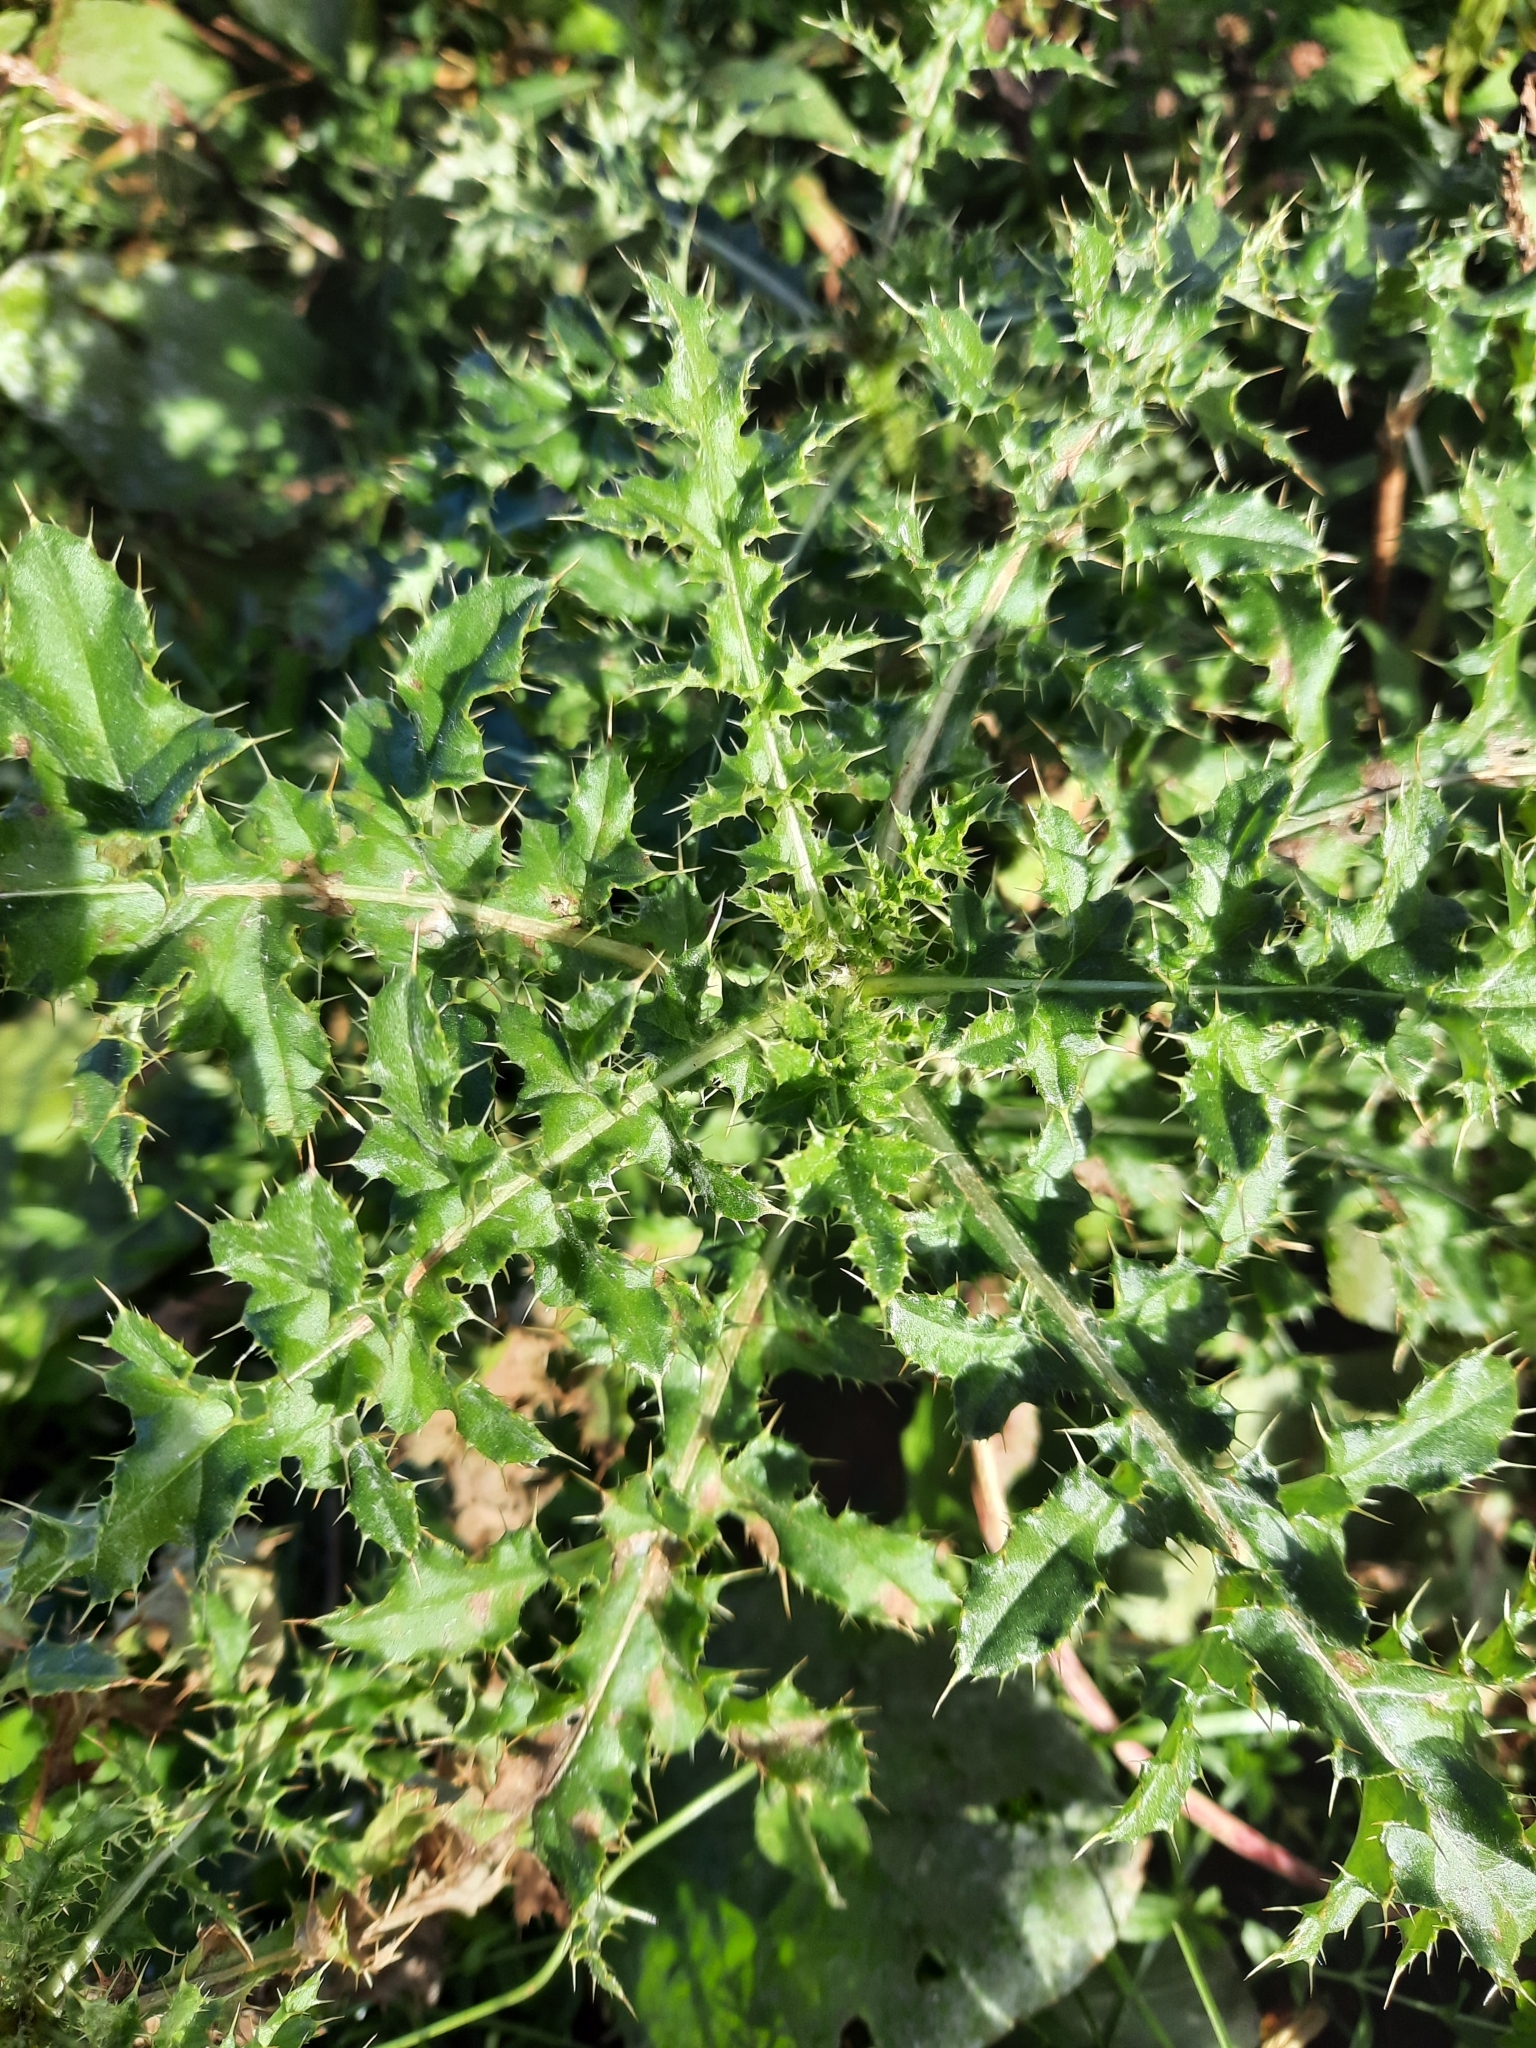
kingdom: Plantae
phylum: Tracheophyta
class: Magnoliopsida
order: Asterales
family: Asteraceae
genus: Cirsium
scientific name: Cirsium arvense
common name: Creeping thistle
